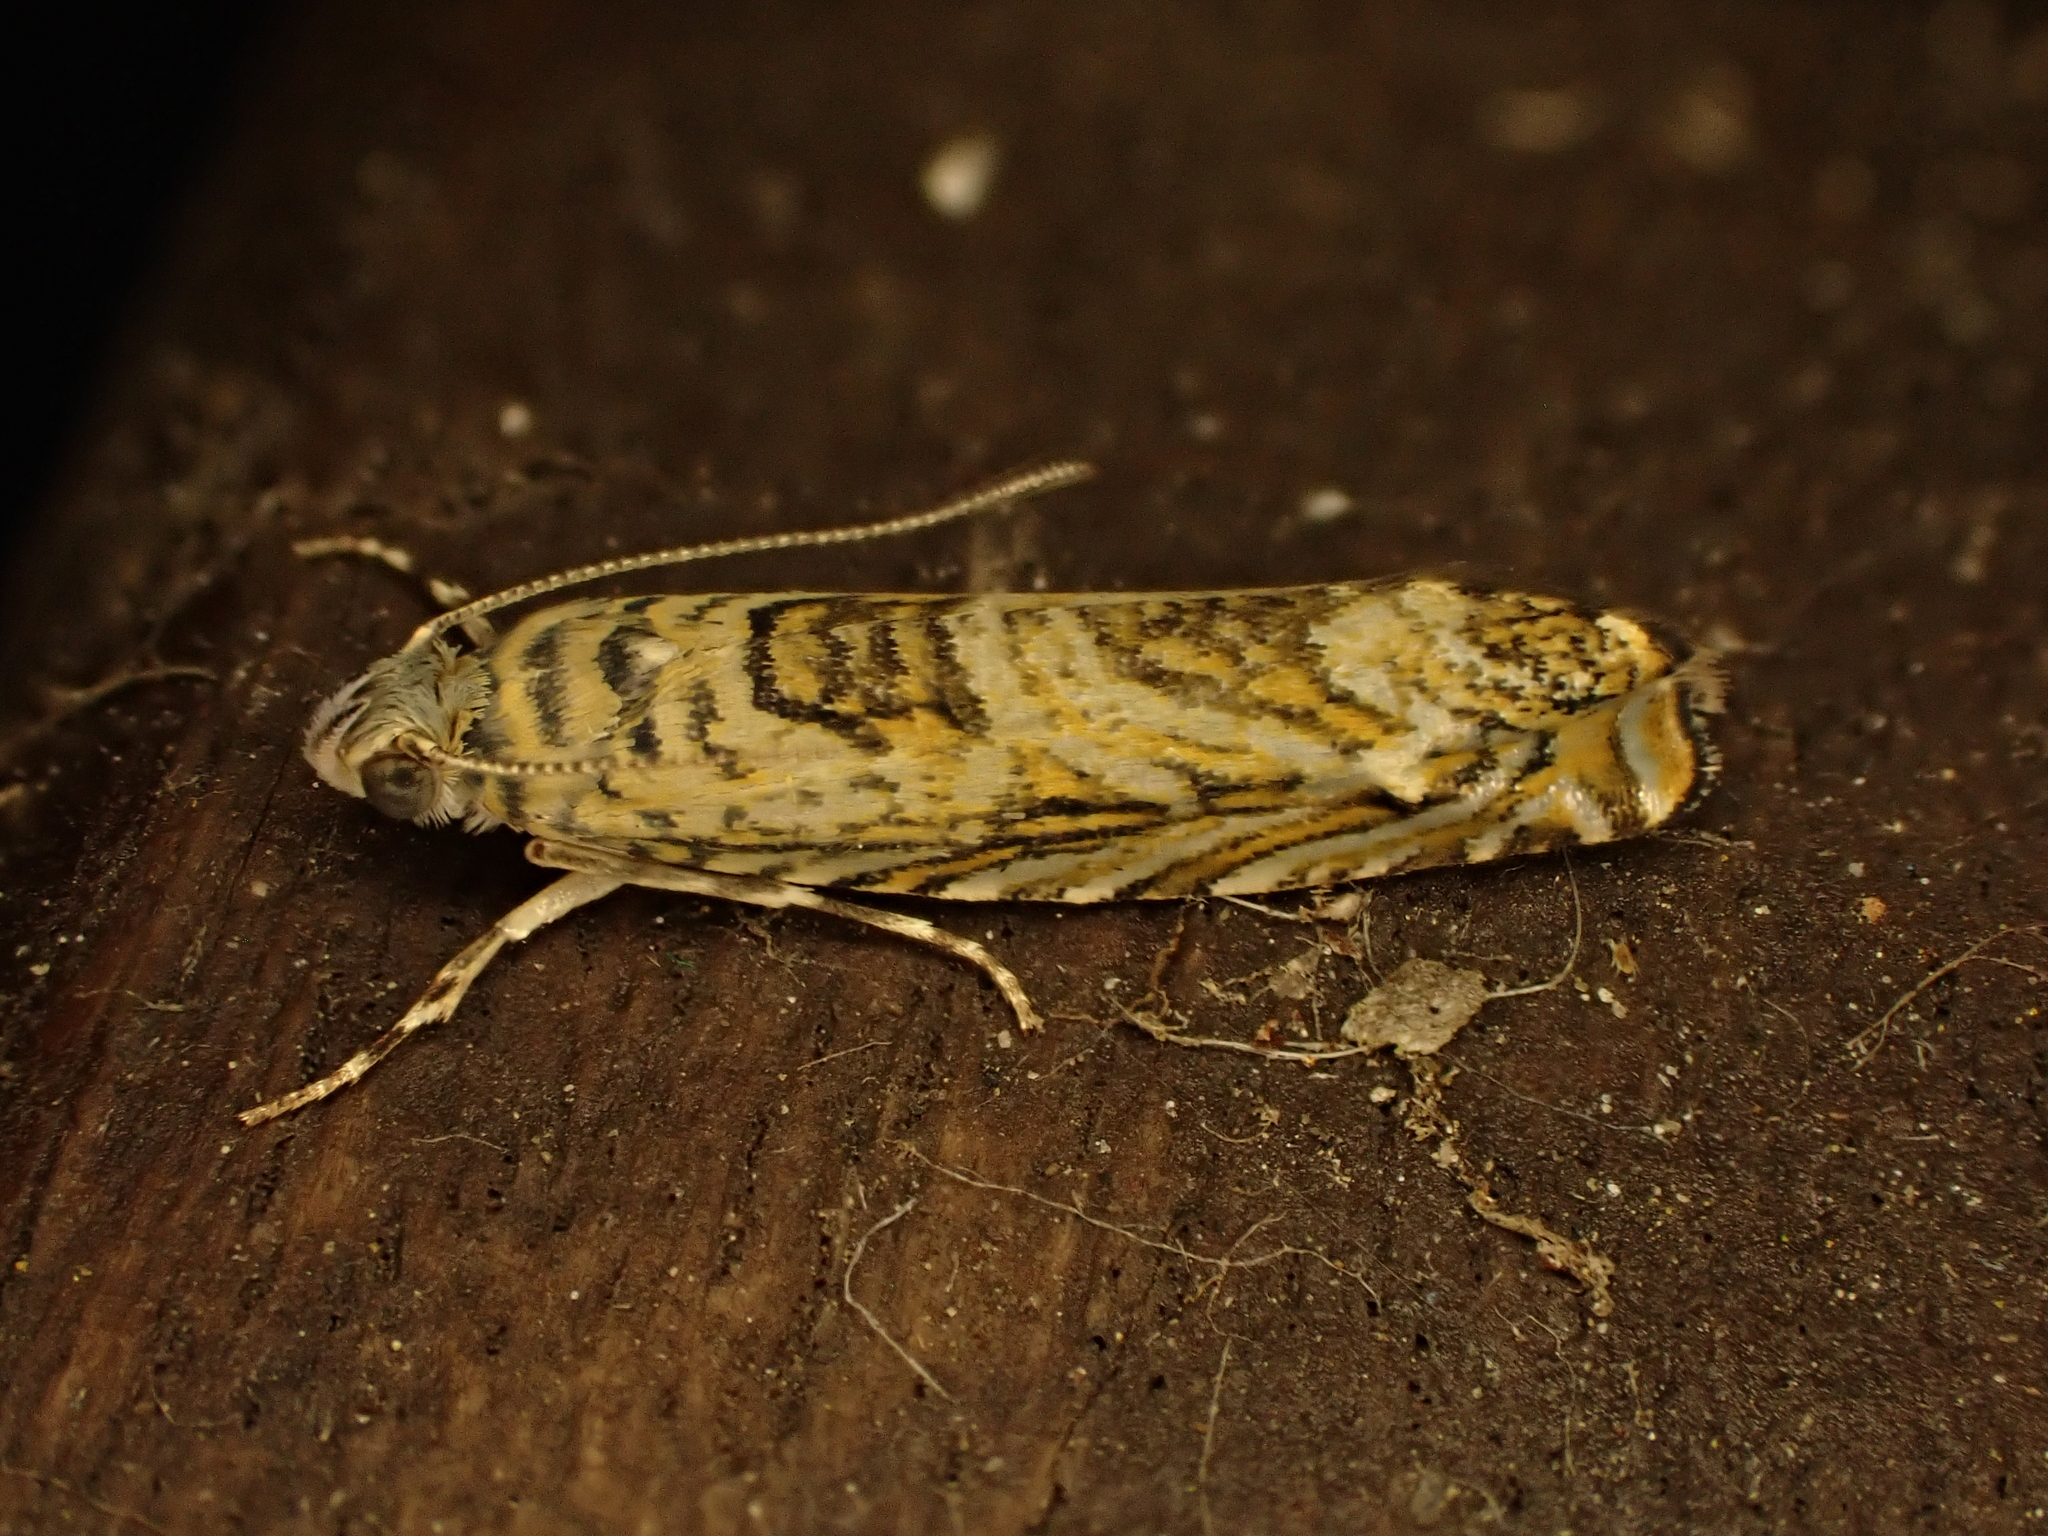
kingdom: Animalia
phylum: Arthropoda
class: Insecta
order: Lepidoptera
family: Plutellidae
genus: Doxophyrtis
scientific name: Doxophyrtis hydrocosma
